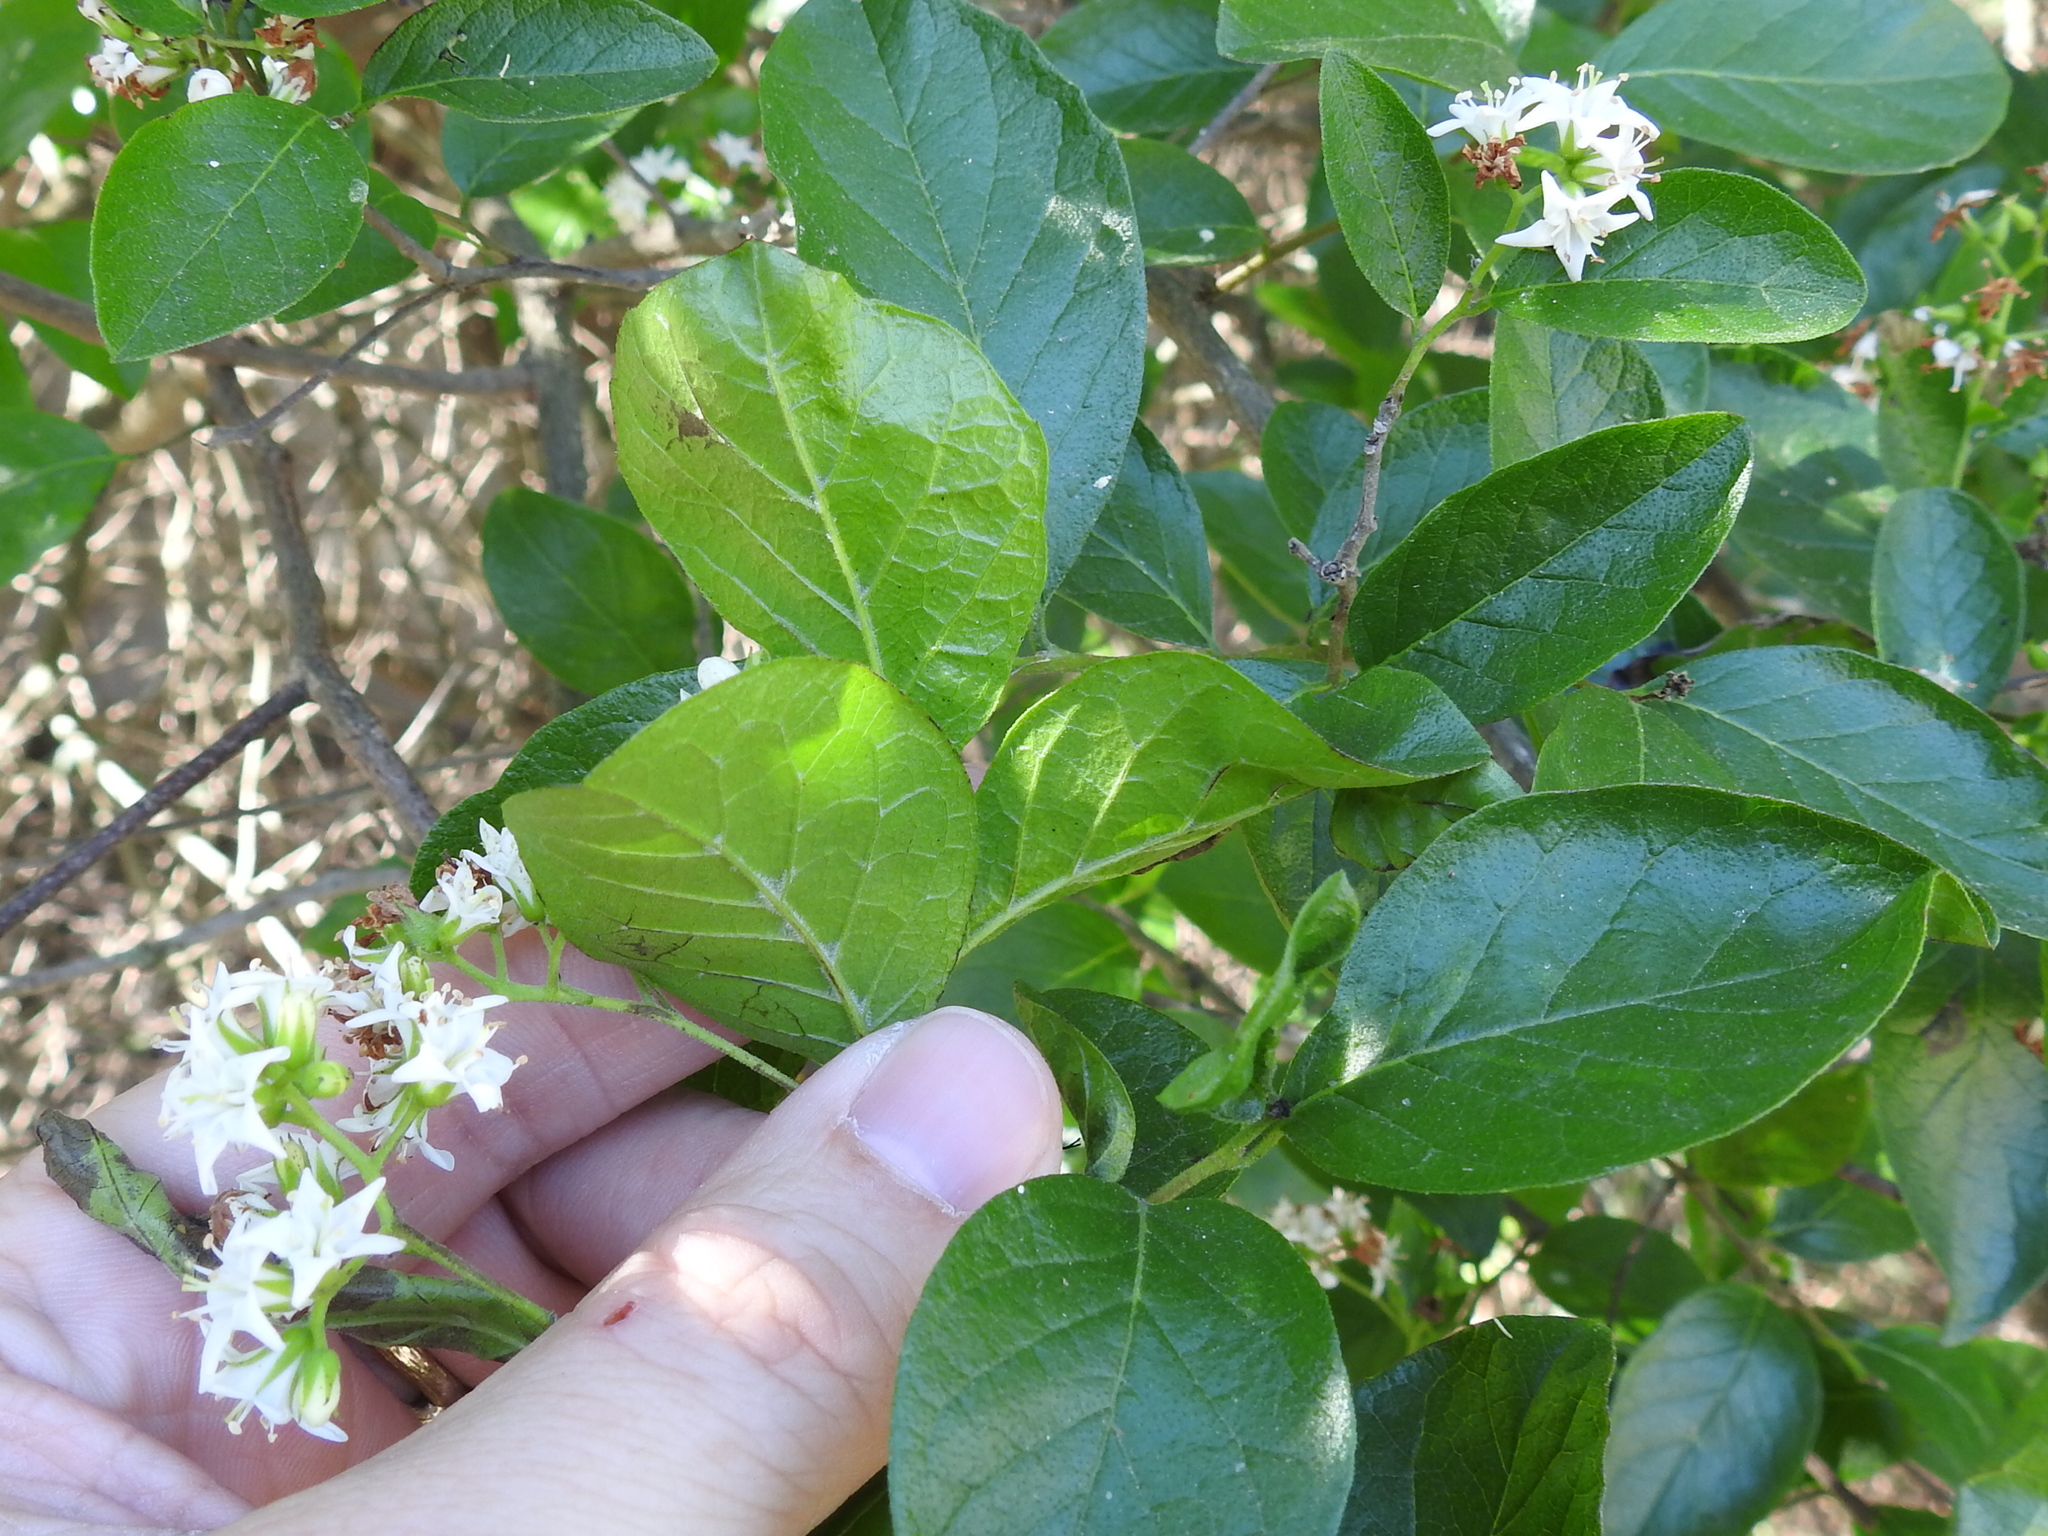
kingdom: Plantae
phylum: Tracheophyta
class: Magnoliopsida
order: Boraginales
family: Ehretiaceae
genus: Ehretia
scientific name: Ehretia anacua
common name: Sugarberry
